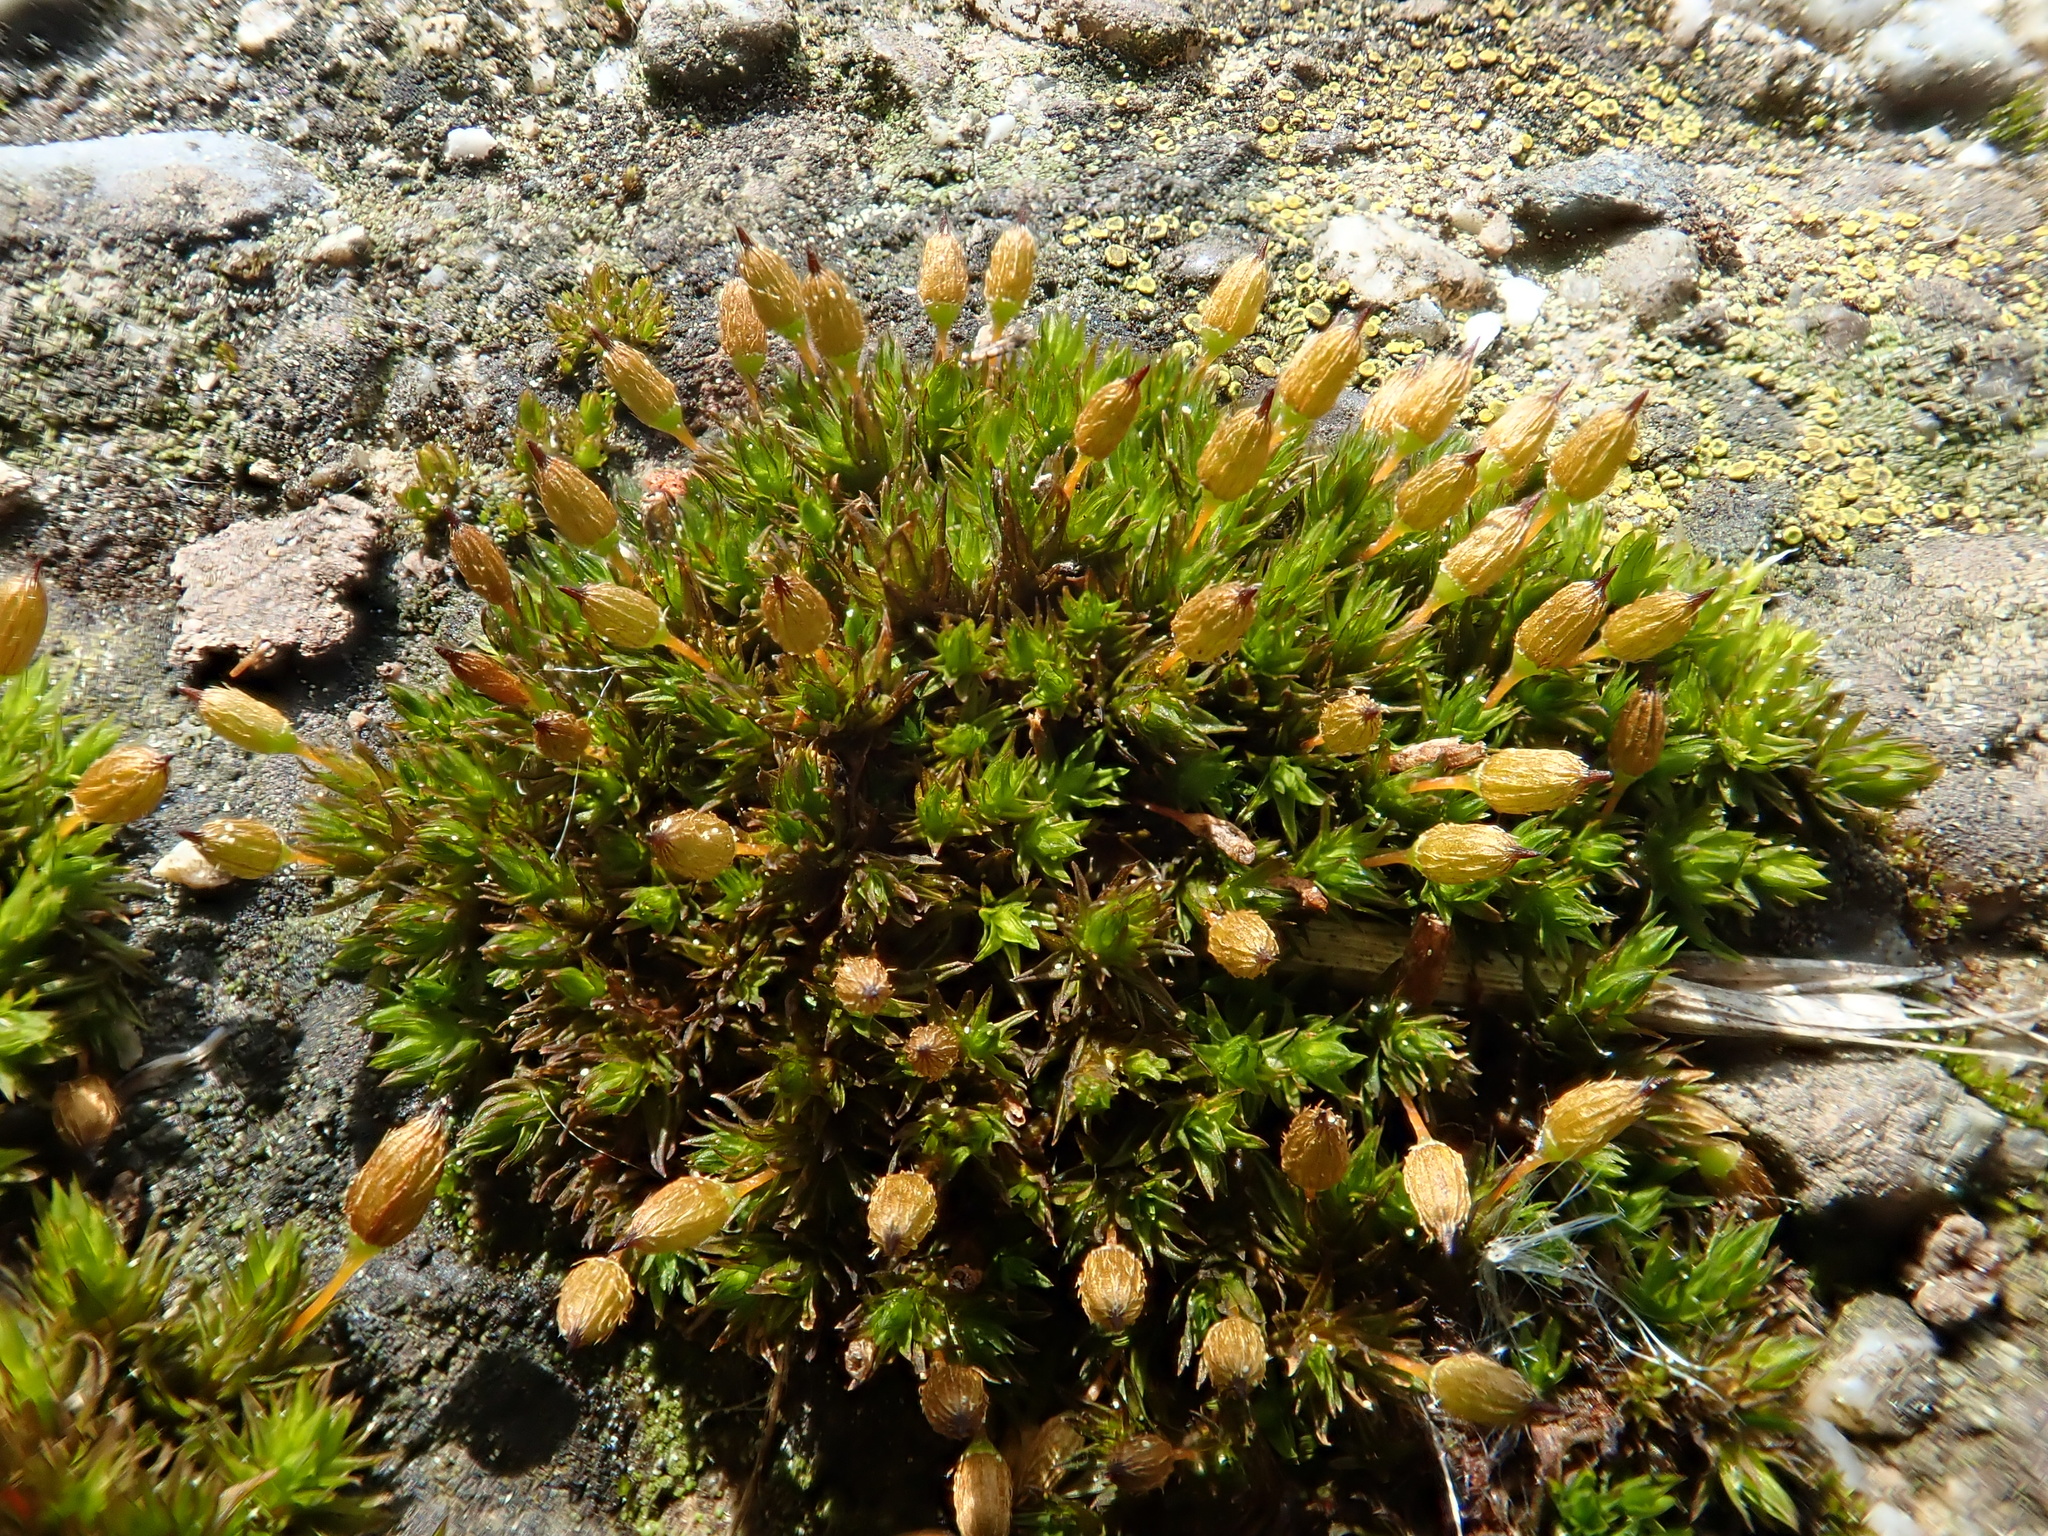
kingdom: Plantae
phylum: Bryophyta
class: Bryopsida
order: Orthotrichales
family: Orthotrichaceae
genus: Orthotrichum
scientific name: Orthotrichum anomalum
